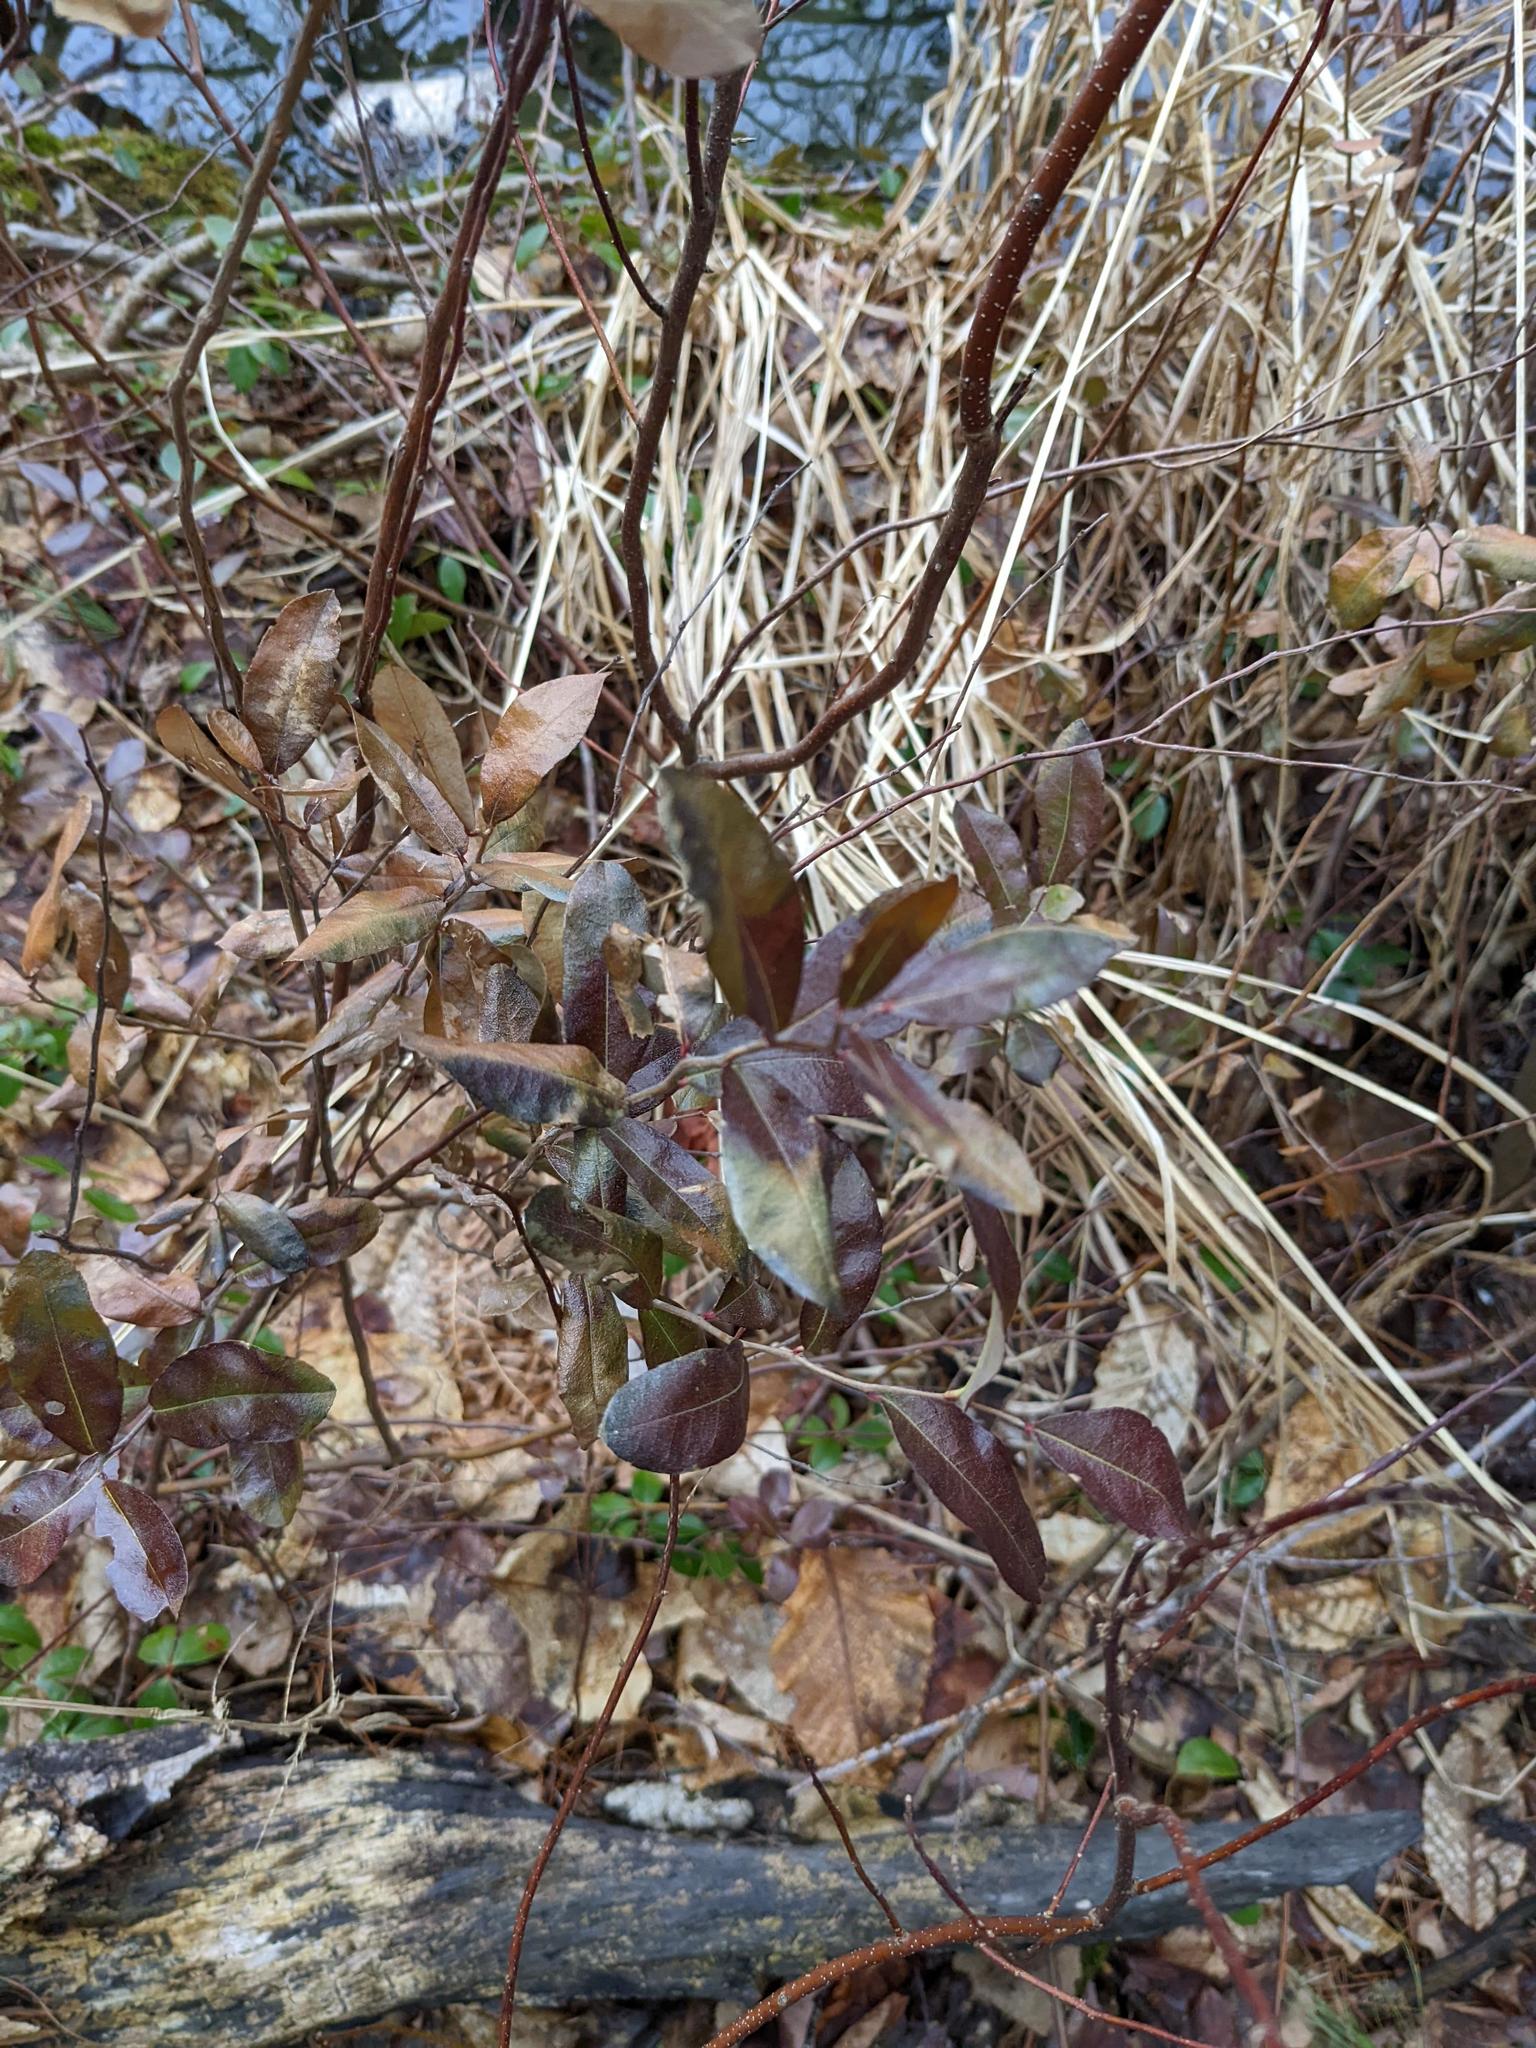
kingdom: Plantae
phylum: Tracheophyta
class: Magnoliopsida
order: Ericales
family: Ericaceae
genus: Chamaedaphne
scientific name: Chamaedaphne calyculata
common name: Leatherleaf
